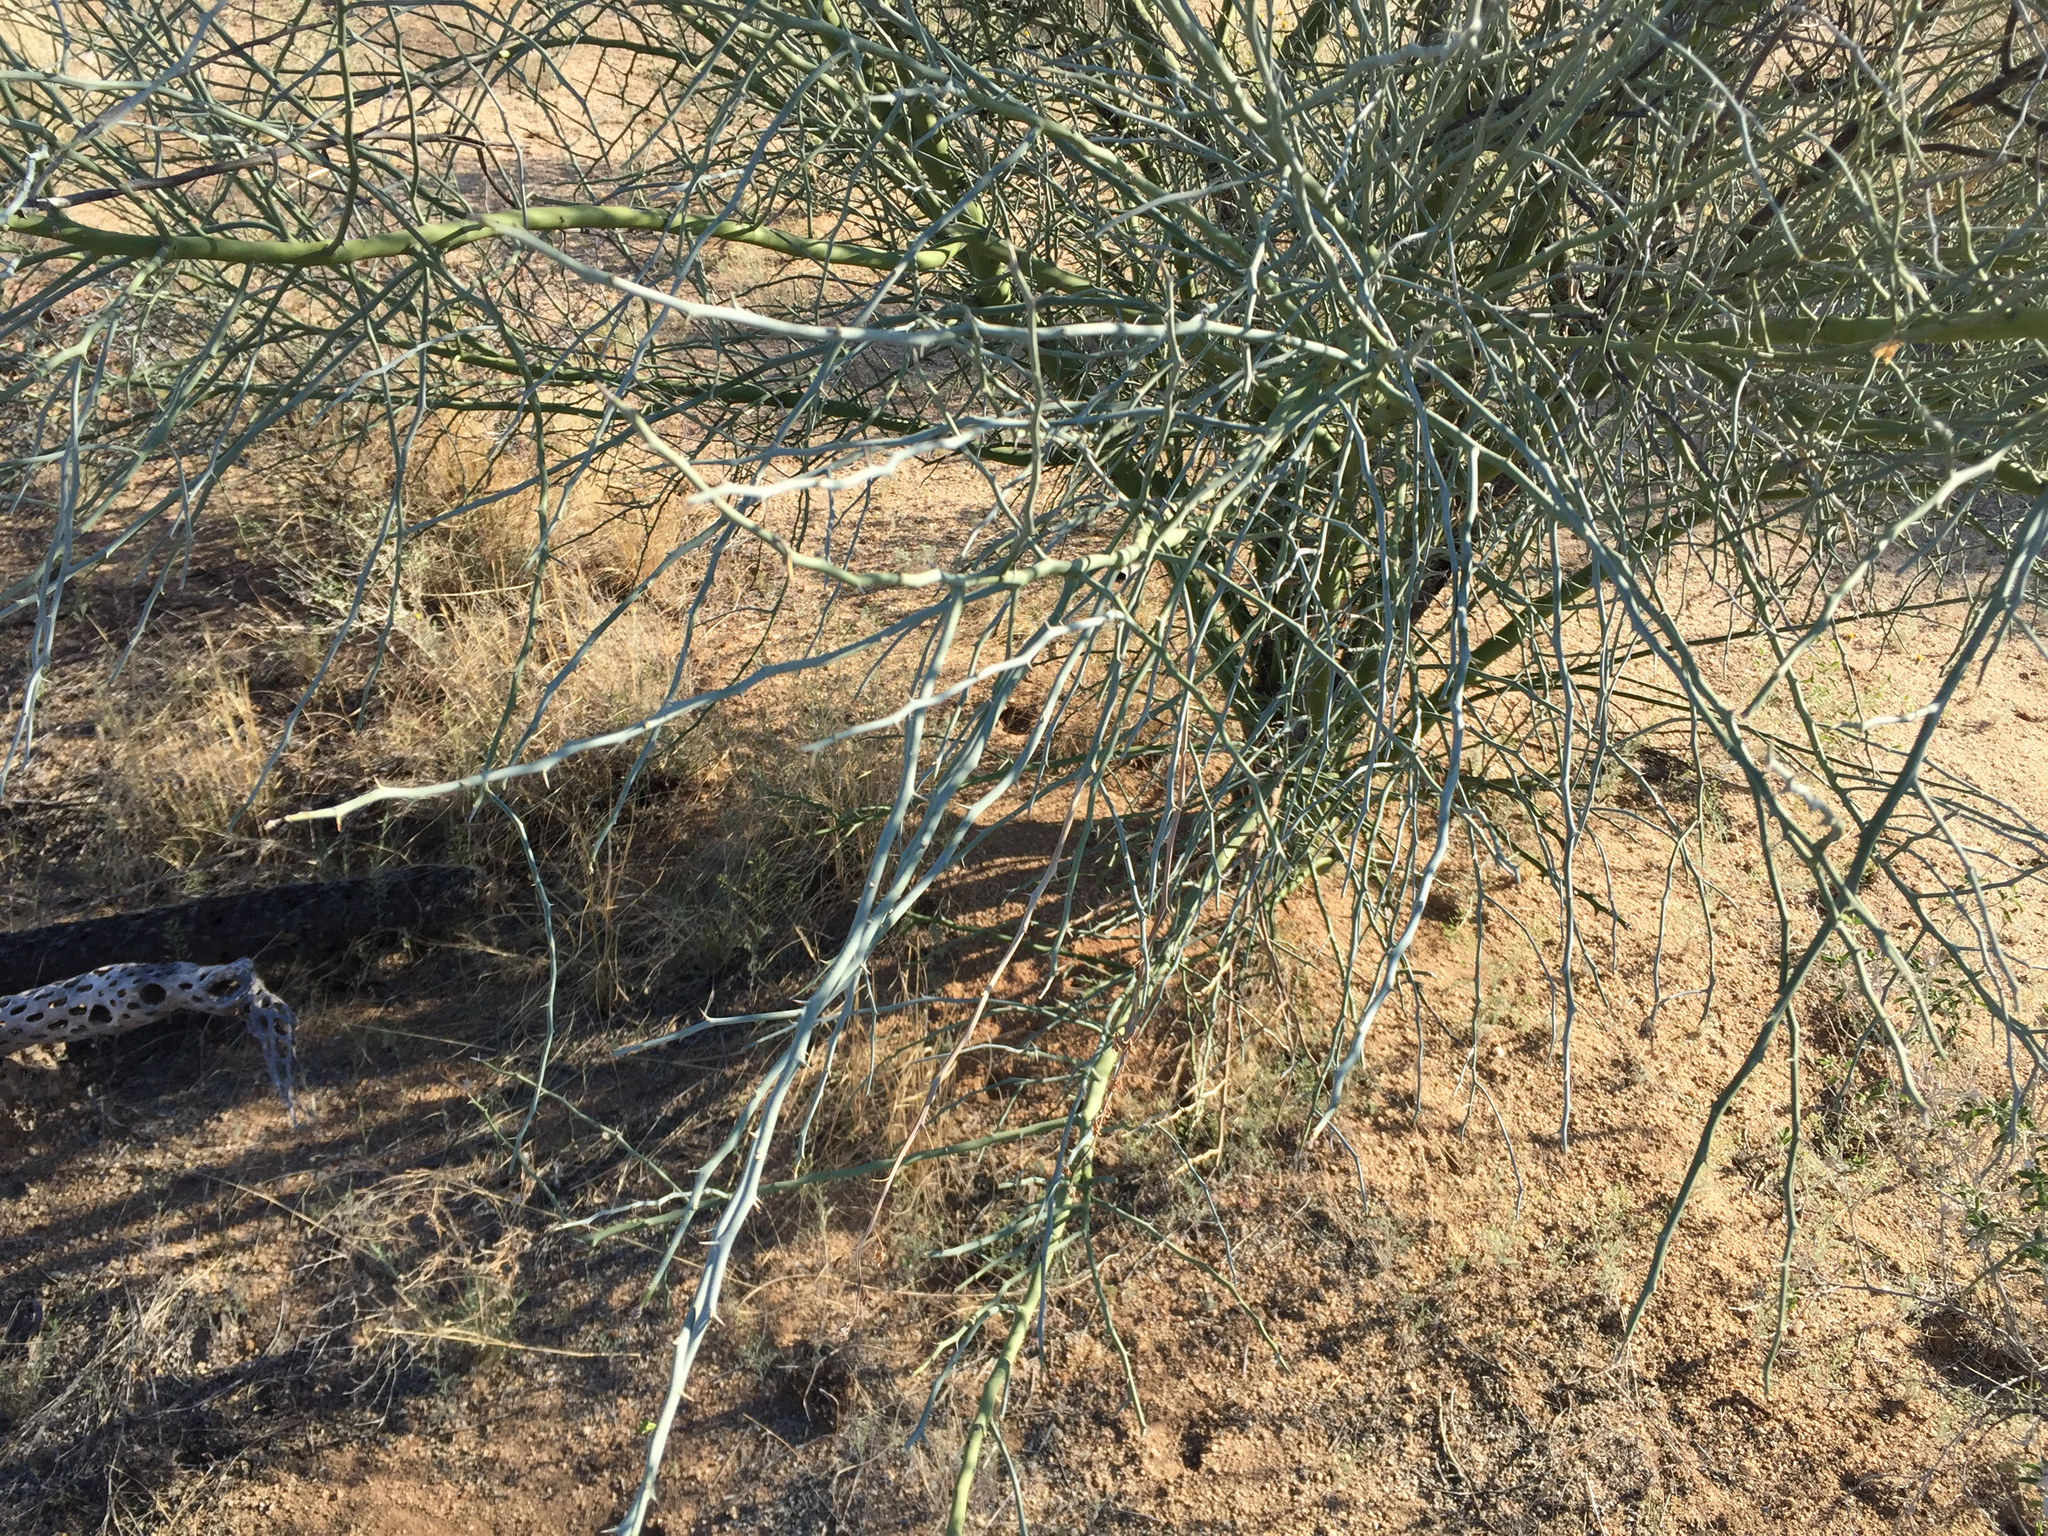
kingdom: Plantae
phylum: Tracheophyta
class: Magnoliopsida
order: Fabales
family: Fabaceae
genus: Parkinsonia
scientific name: Parkinsonia florida
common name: Blue paloverde
